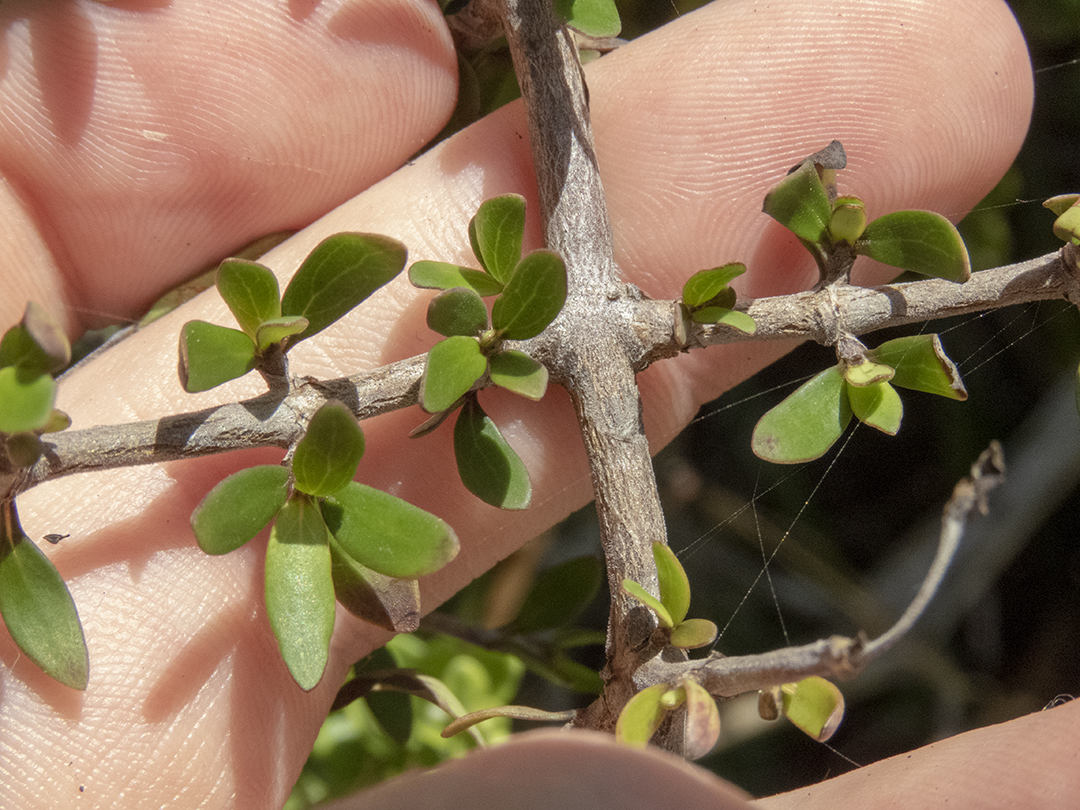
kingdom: Plantae
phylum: Tracheophyta
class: Magnoliopsida
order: Gentianales
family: Rubiaceae
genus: Coprosma
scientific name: Coprosma propinqua
